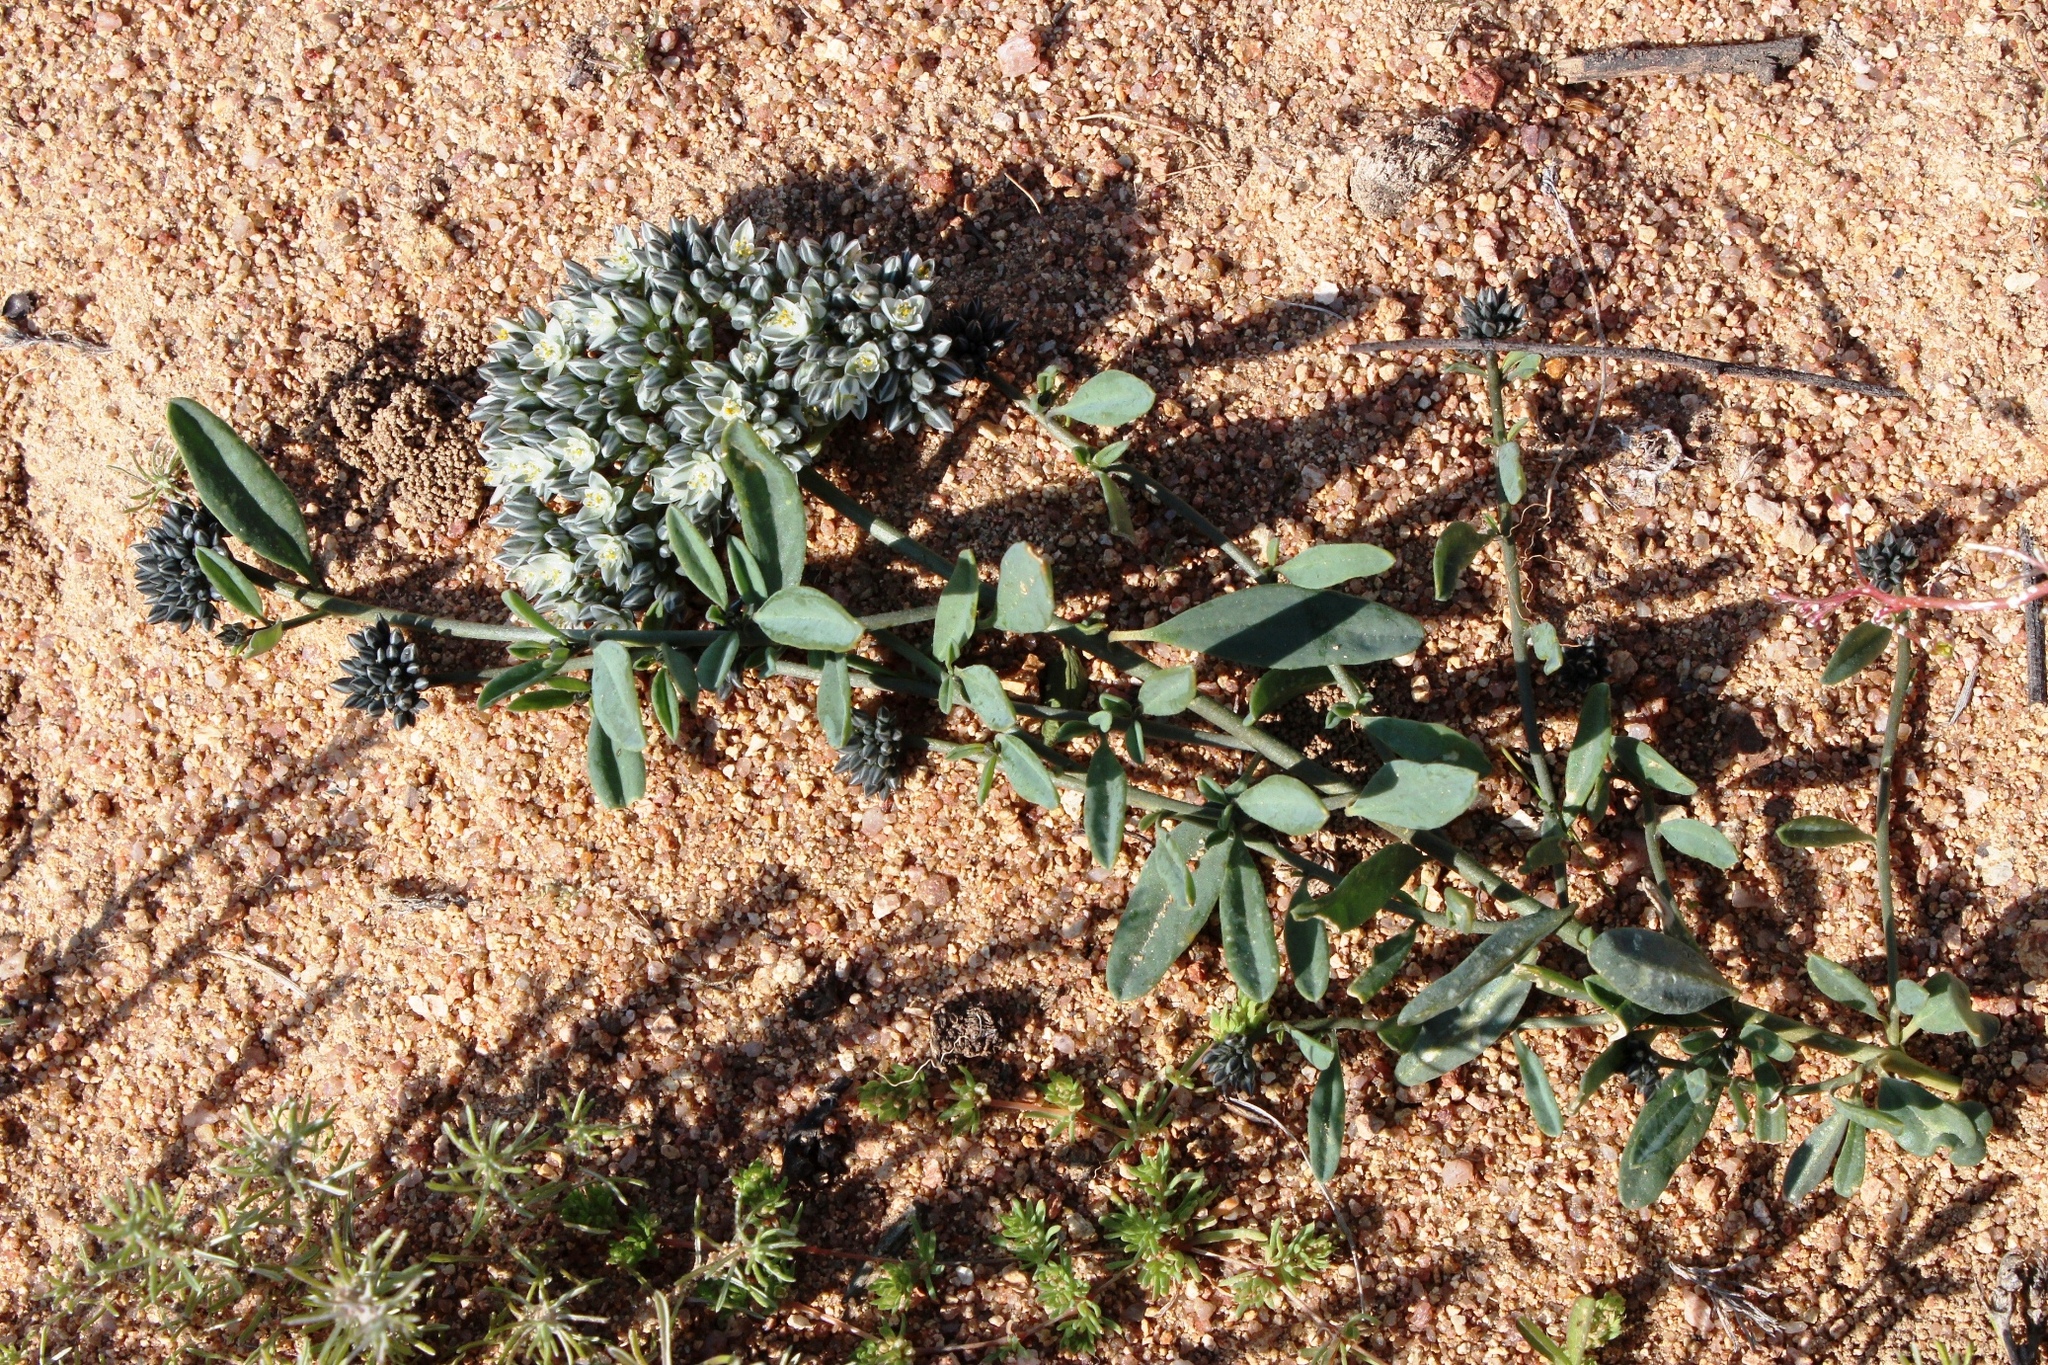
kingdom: Plantae
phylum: Tracheophyta
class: Magnoliopsida
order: Caryophyllales
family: Limeaceae
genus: Limeum
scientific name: Limeum africanum
